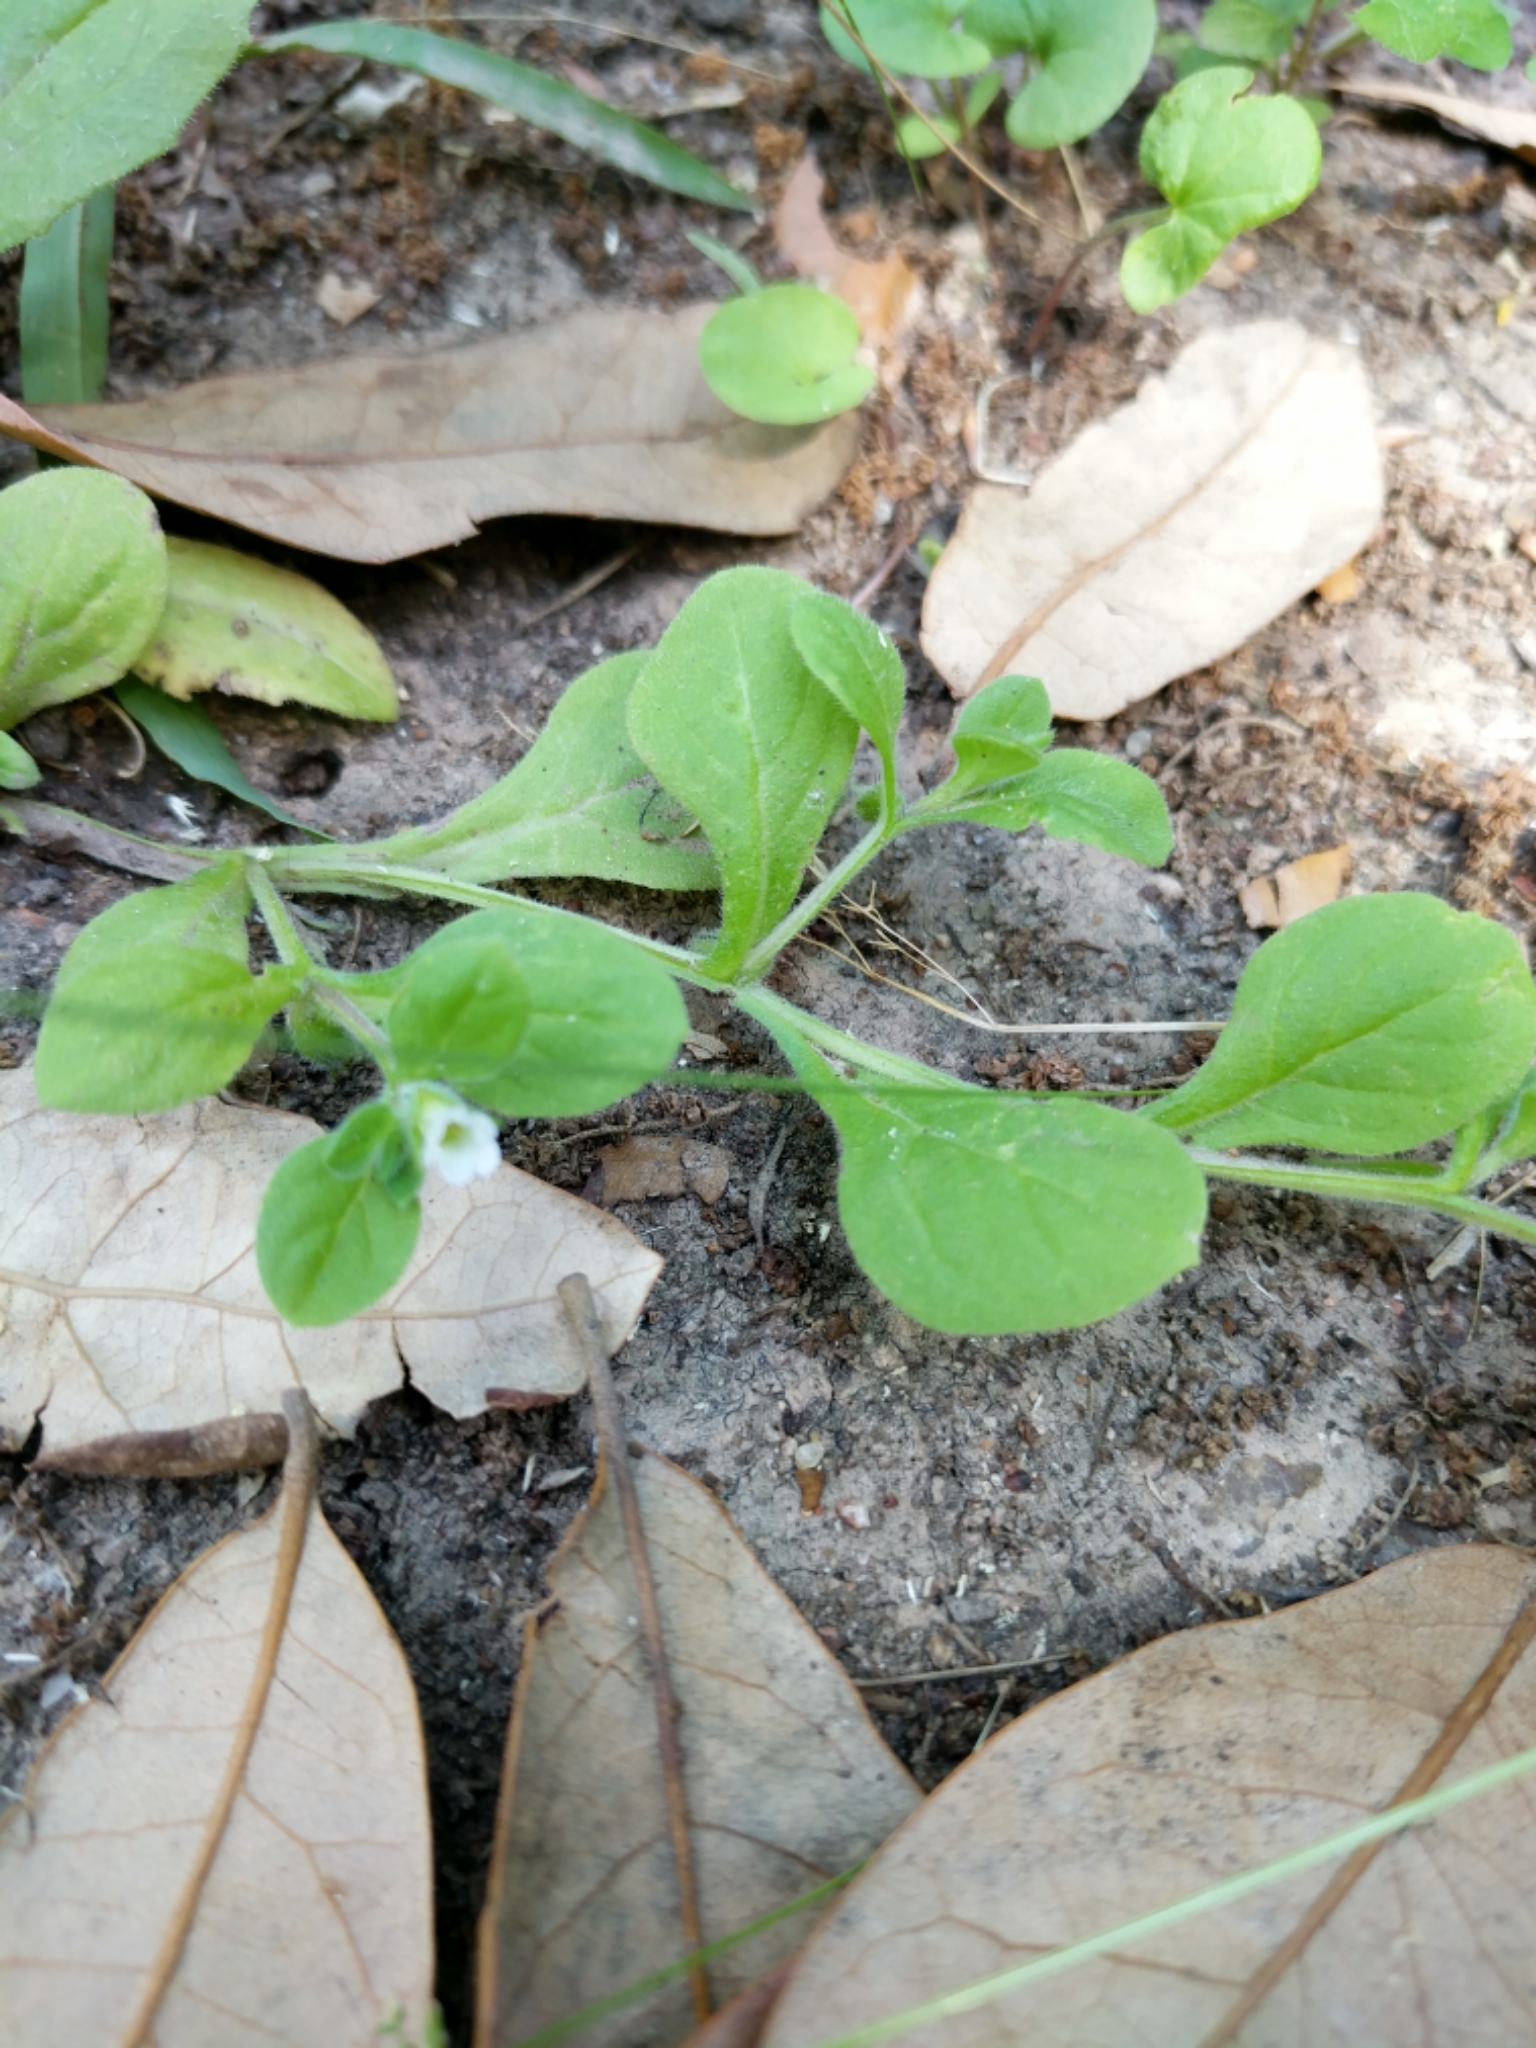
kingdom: Plantae
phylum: Tracheophyta
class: Magnoliopsida
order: Boraginales
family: Namaceae
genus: Nama
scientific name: Nama jamaicensis
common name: Jamaicanweed
